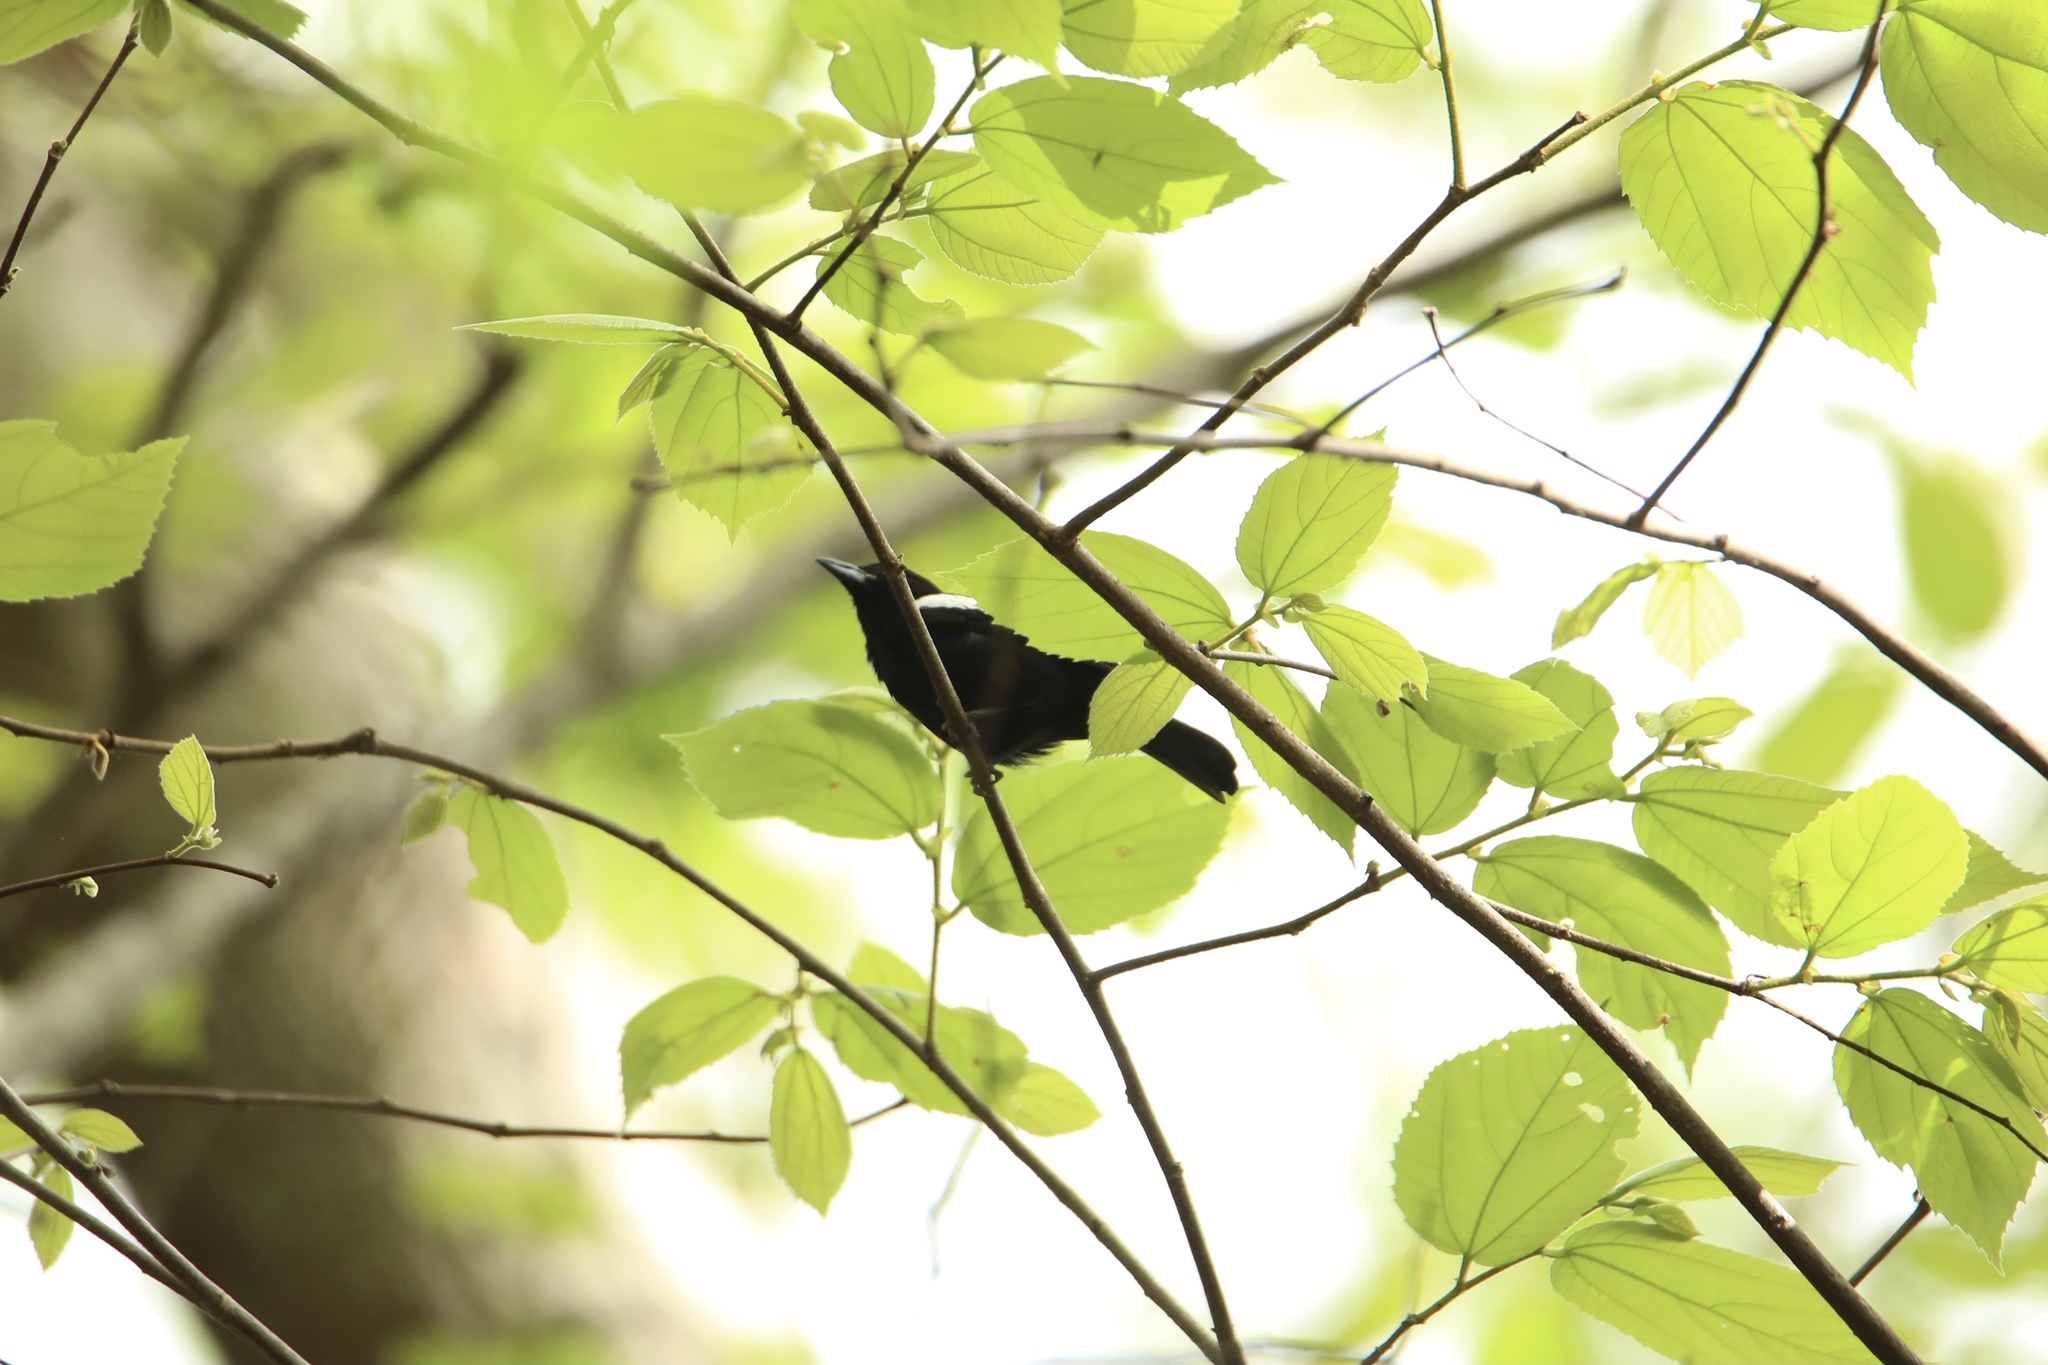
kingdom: Animalia
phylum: Chordata
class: Aves
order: Passeriformes
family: Thraupidae
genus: Loriotus
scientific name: Loriotus luctuosus
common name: White-shouldered tanager
